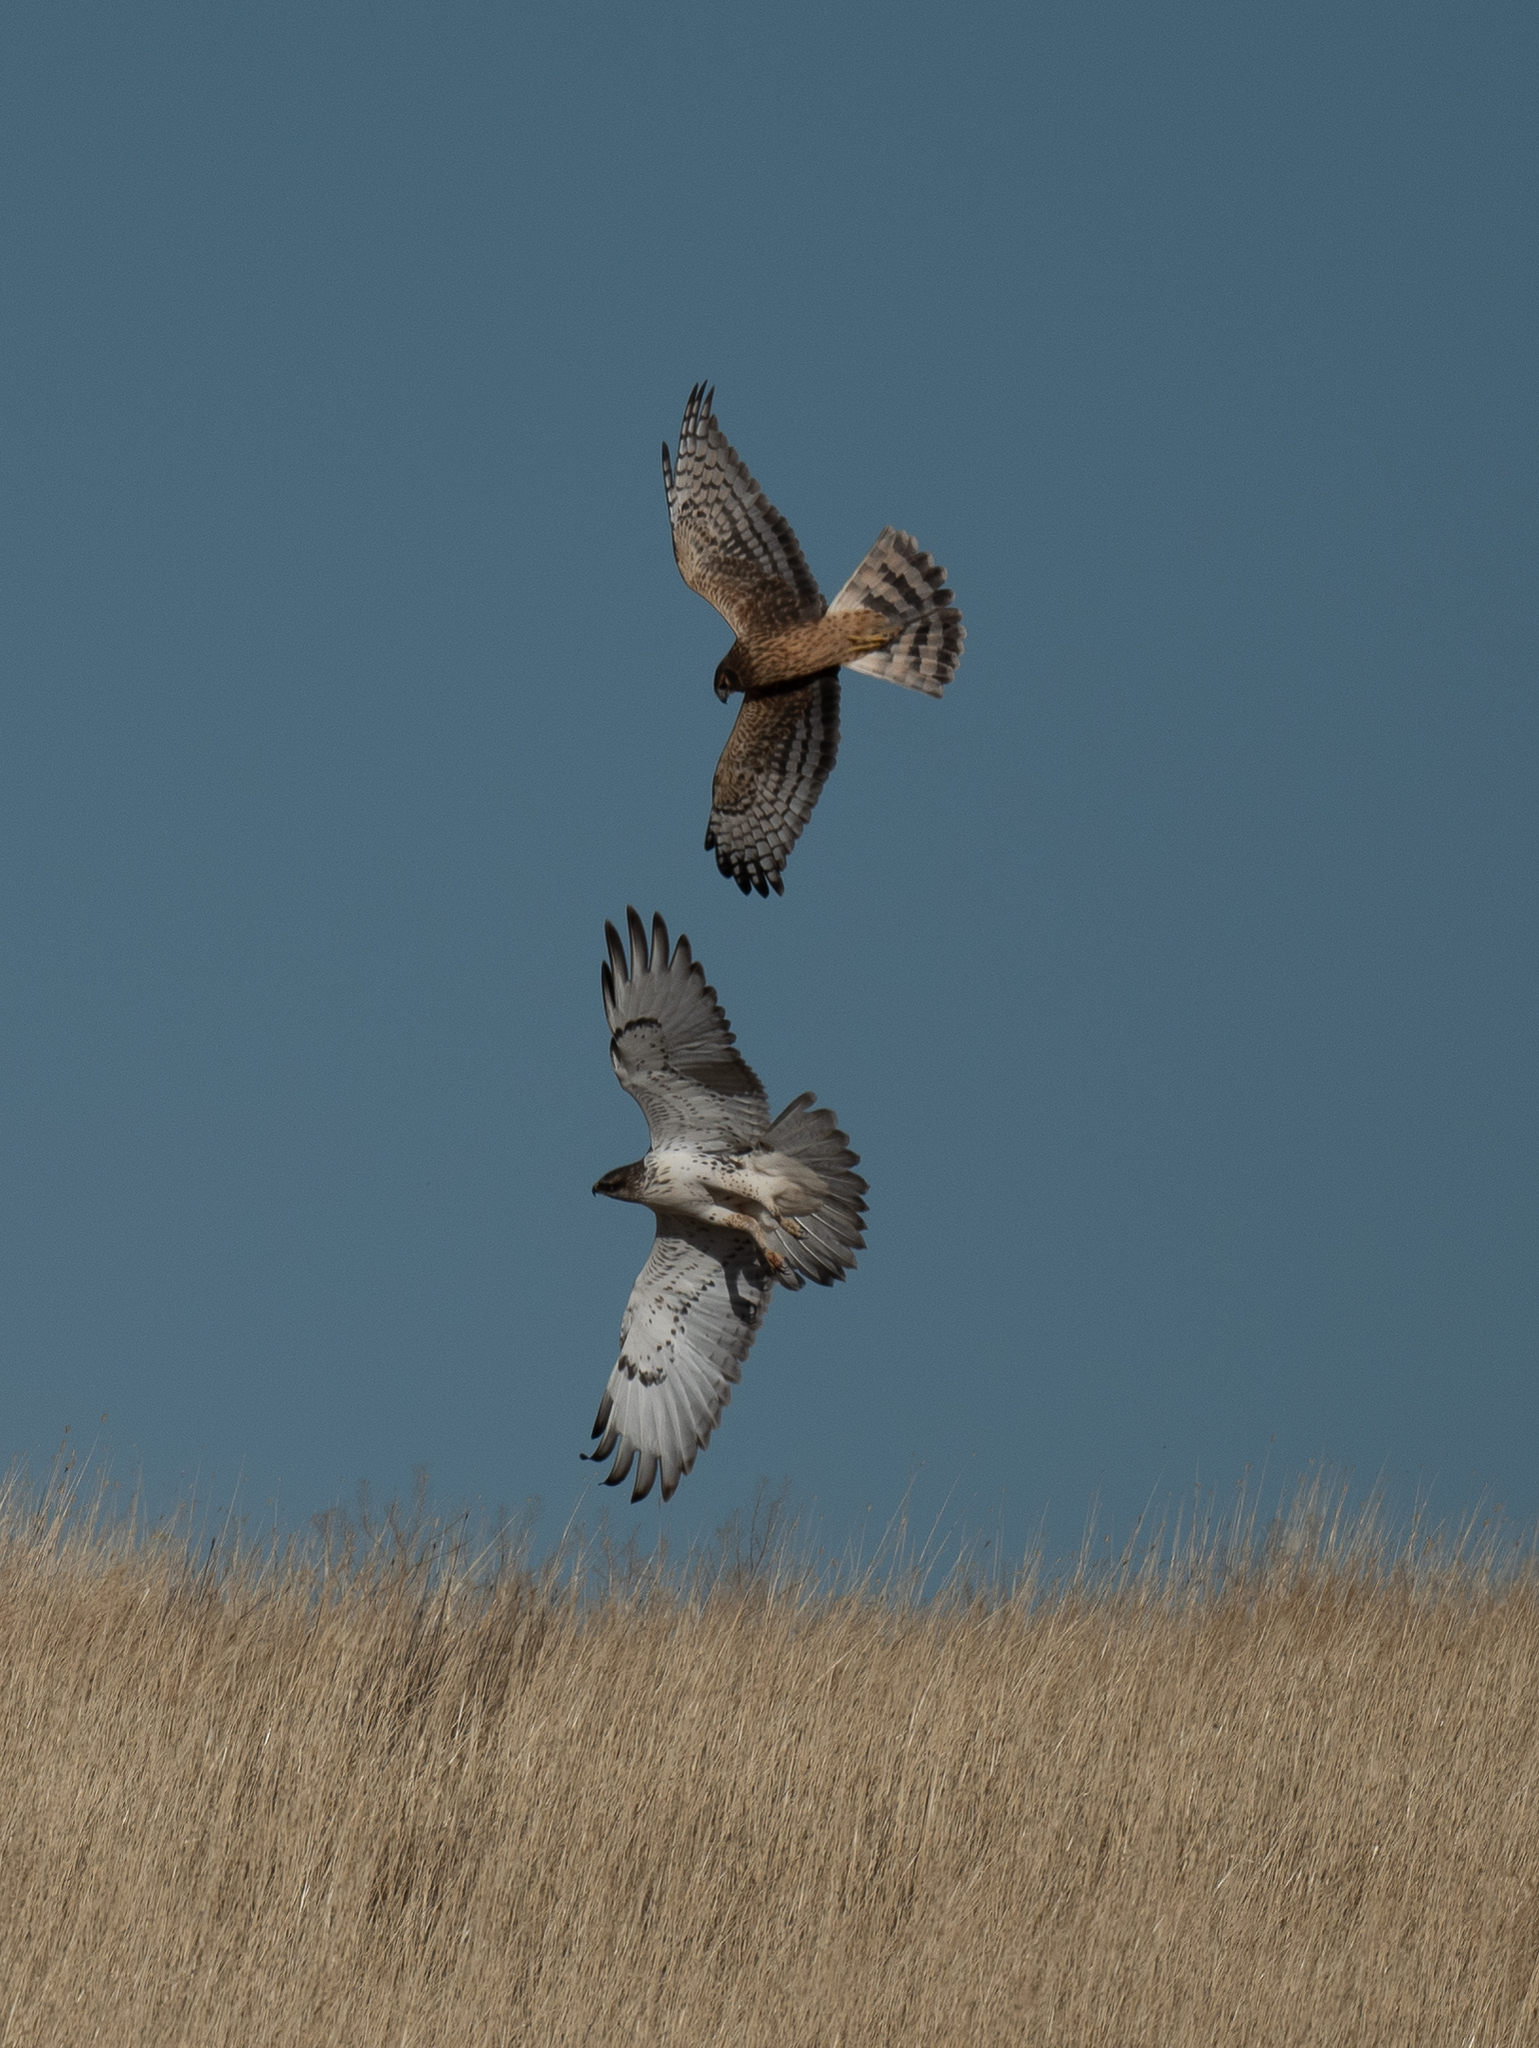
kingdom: Animalia
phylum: Chordata
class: Aves
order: Accipitriformes
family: Accipitridae
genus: Circus
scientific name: Circus cyaneus
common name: Hen harrier
